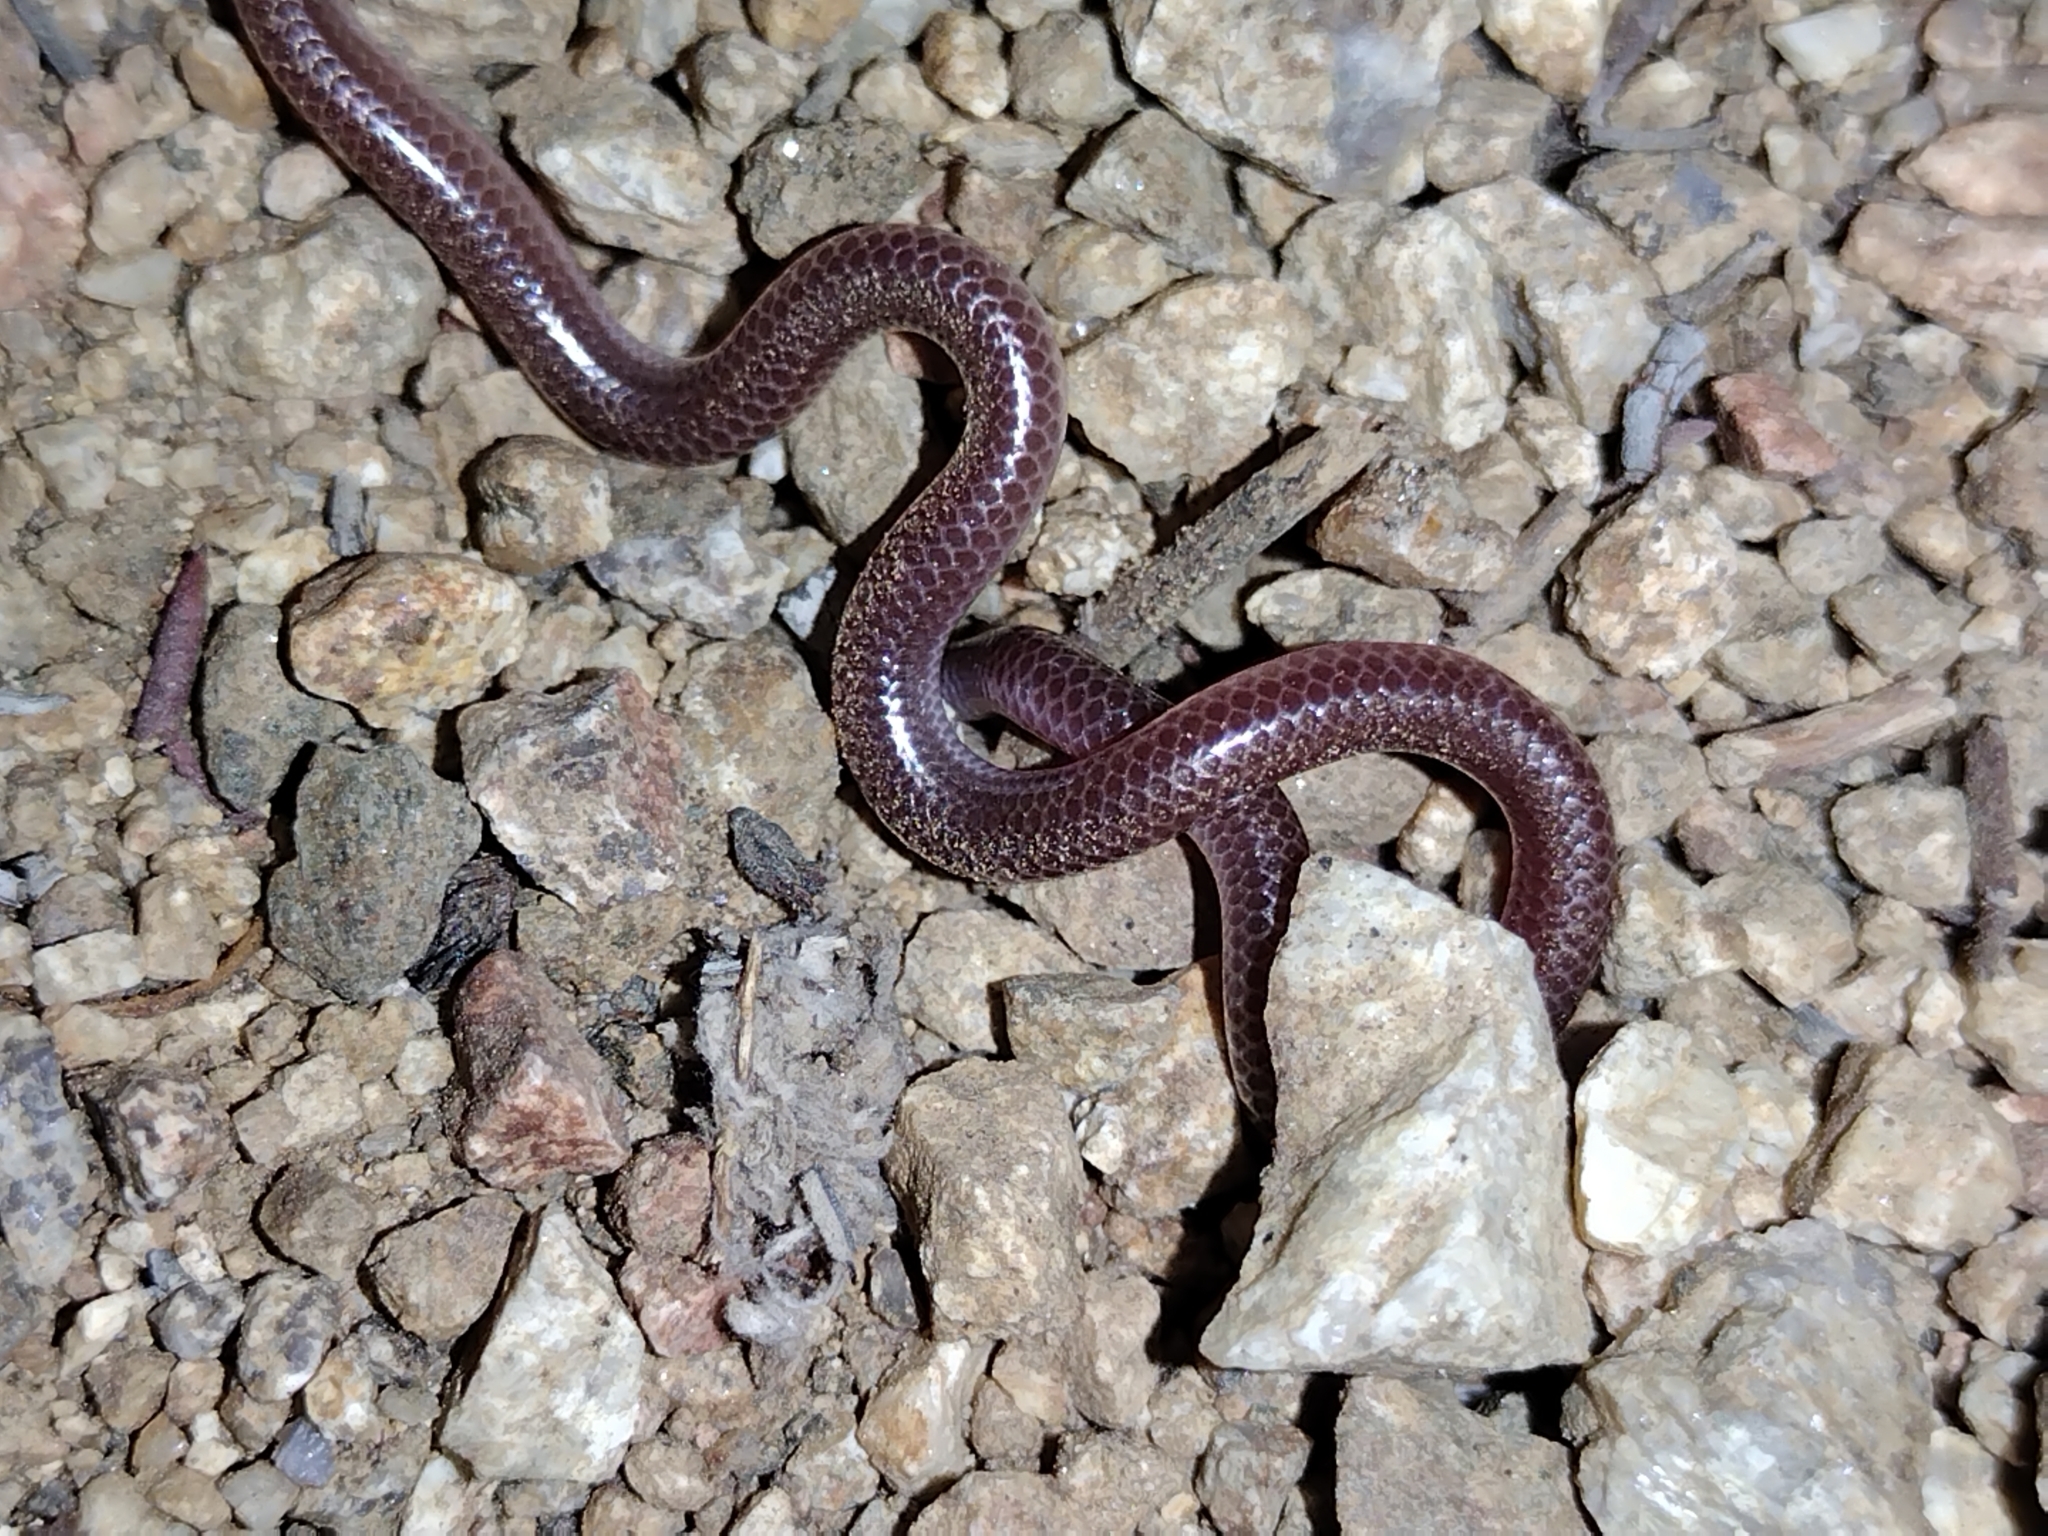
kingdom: Animalia
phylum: Chordata
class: Squamata
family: Leptotyphlopidae
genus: Rena
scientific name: Rena humilis
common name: Western threadsnake
